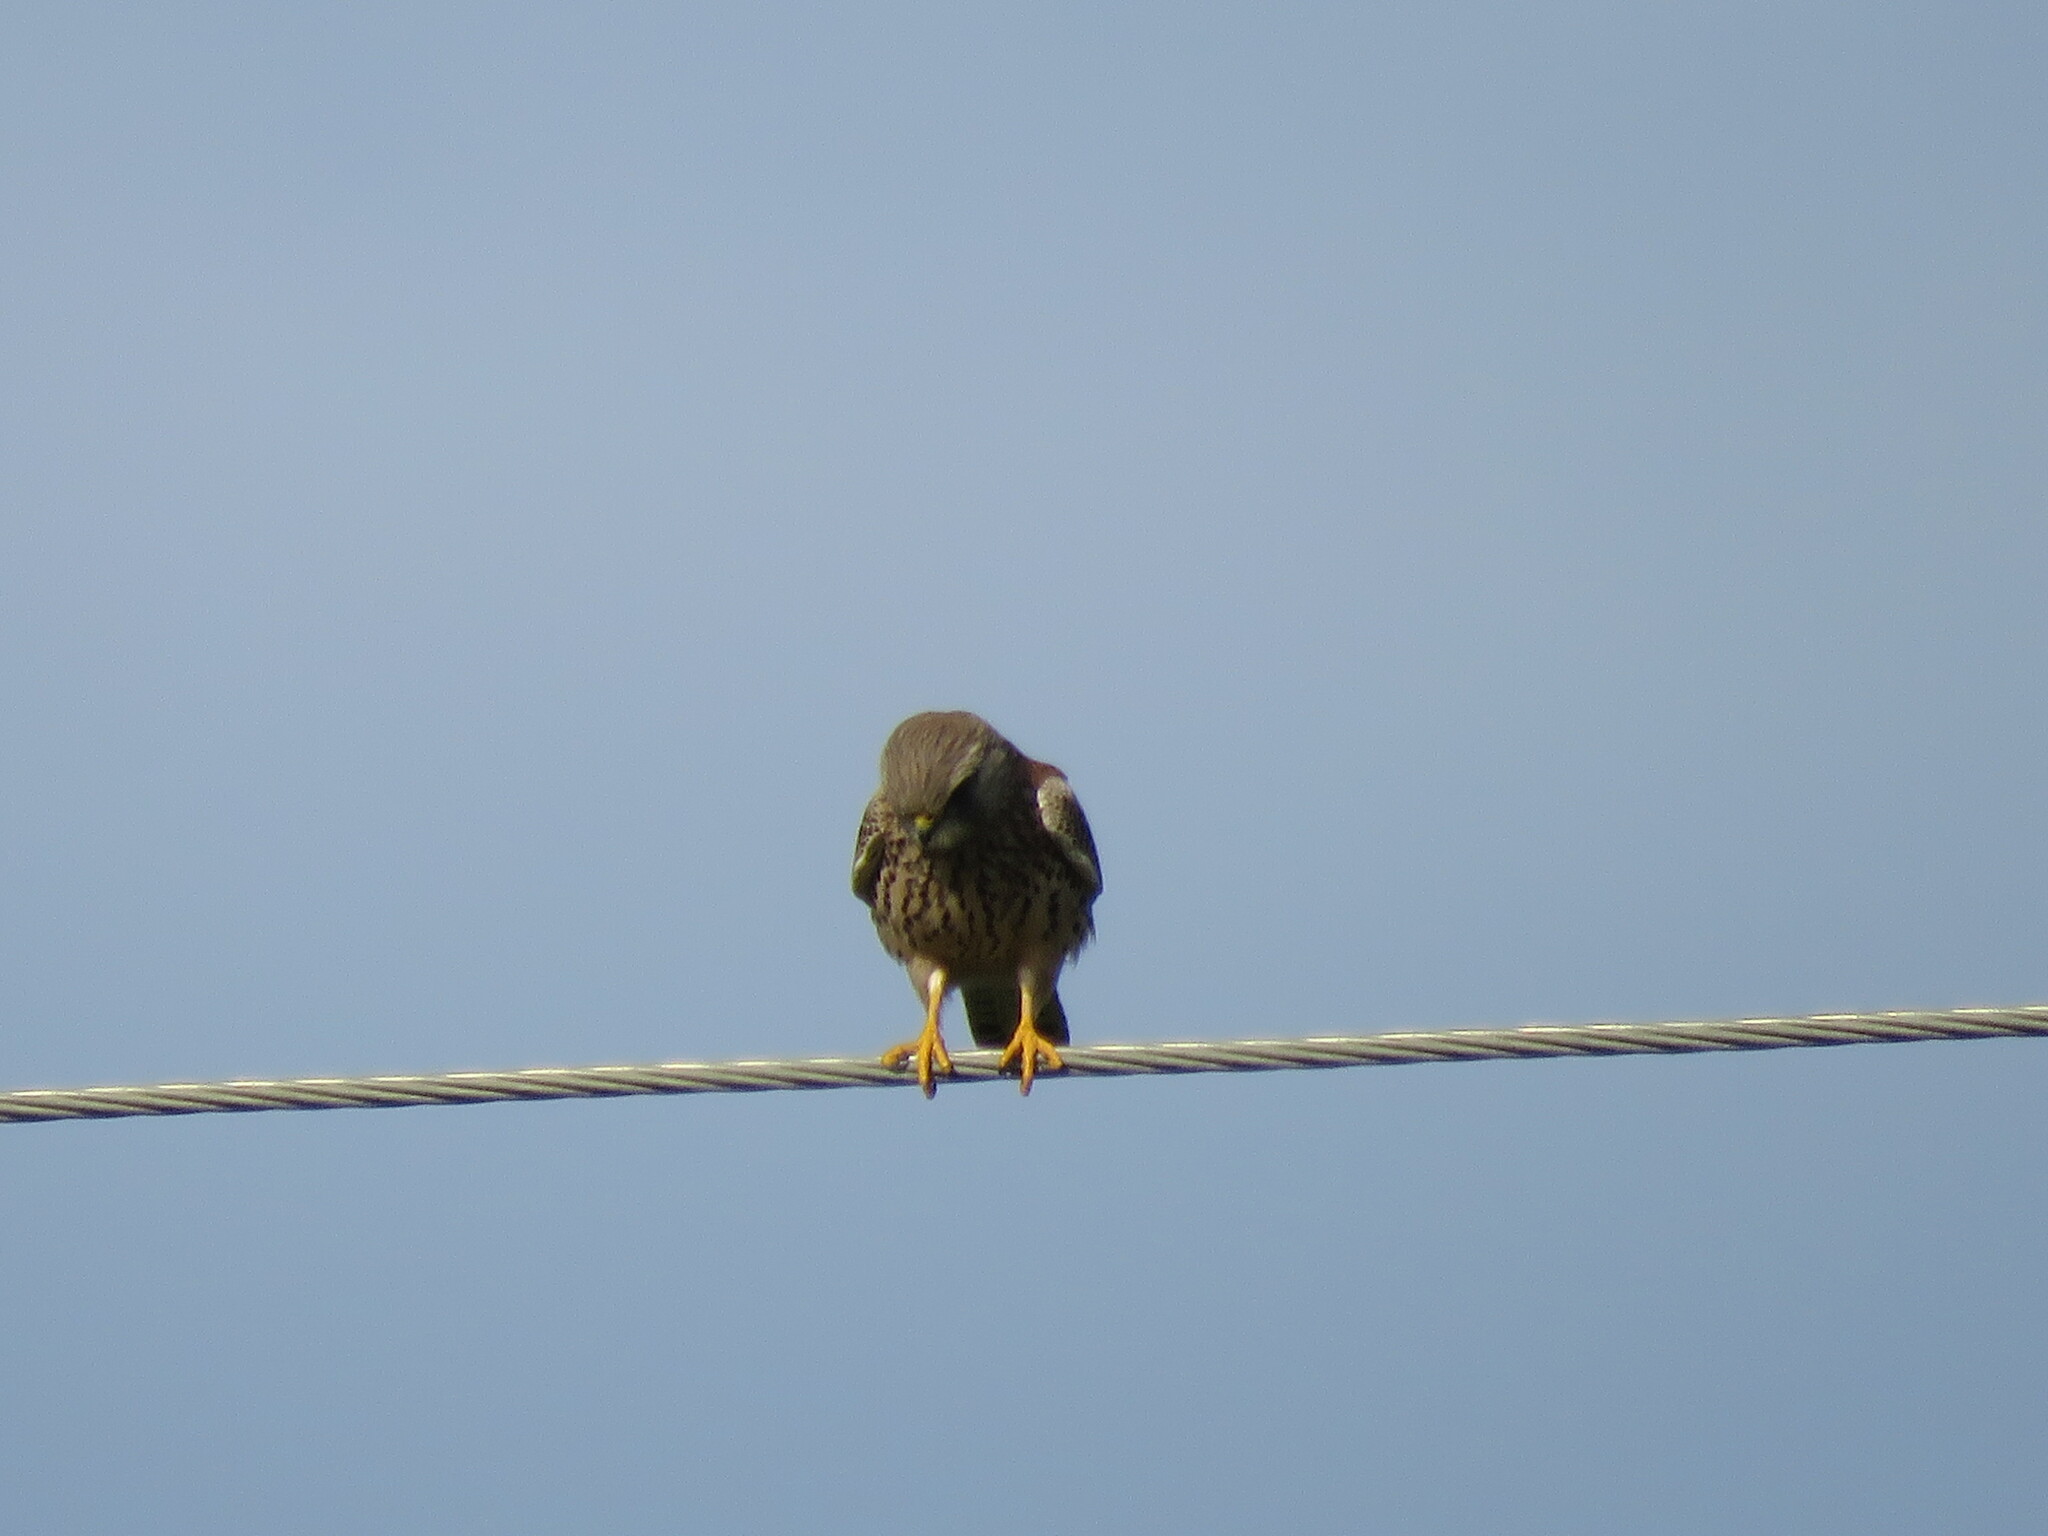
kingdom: Animalia
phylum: Chordata
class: Aves
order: Falconiformes
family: Falconidae
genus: Falco
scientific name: Falco tinnunculus
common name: Common kestrel
